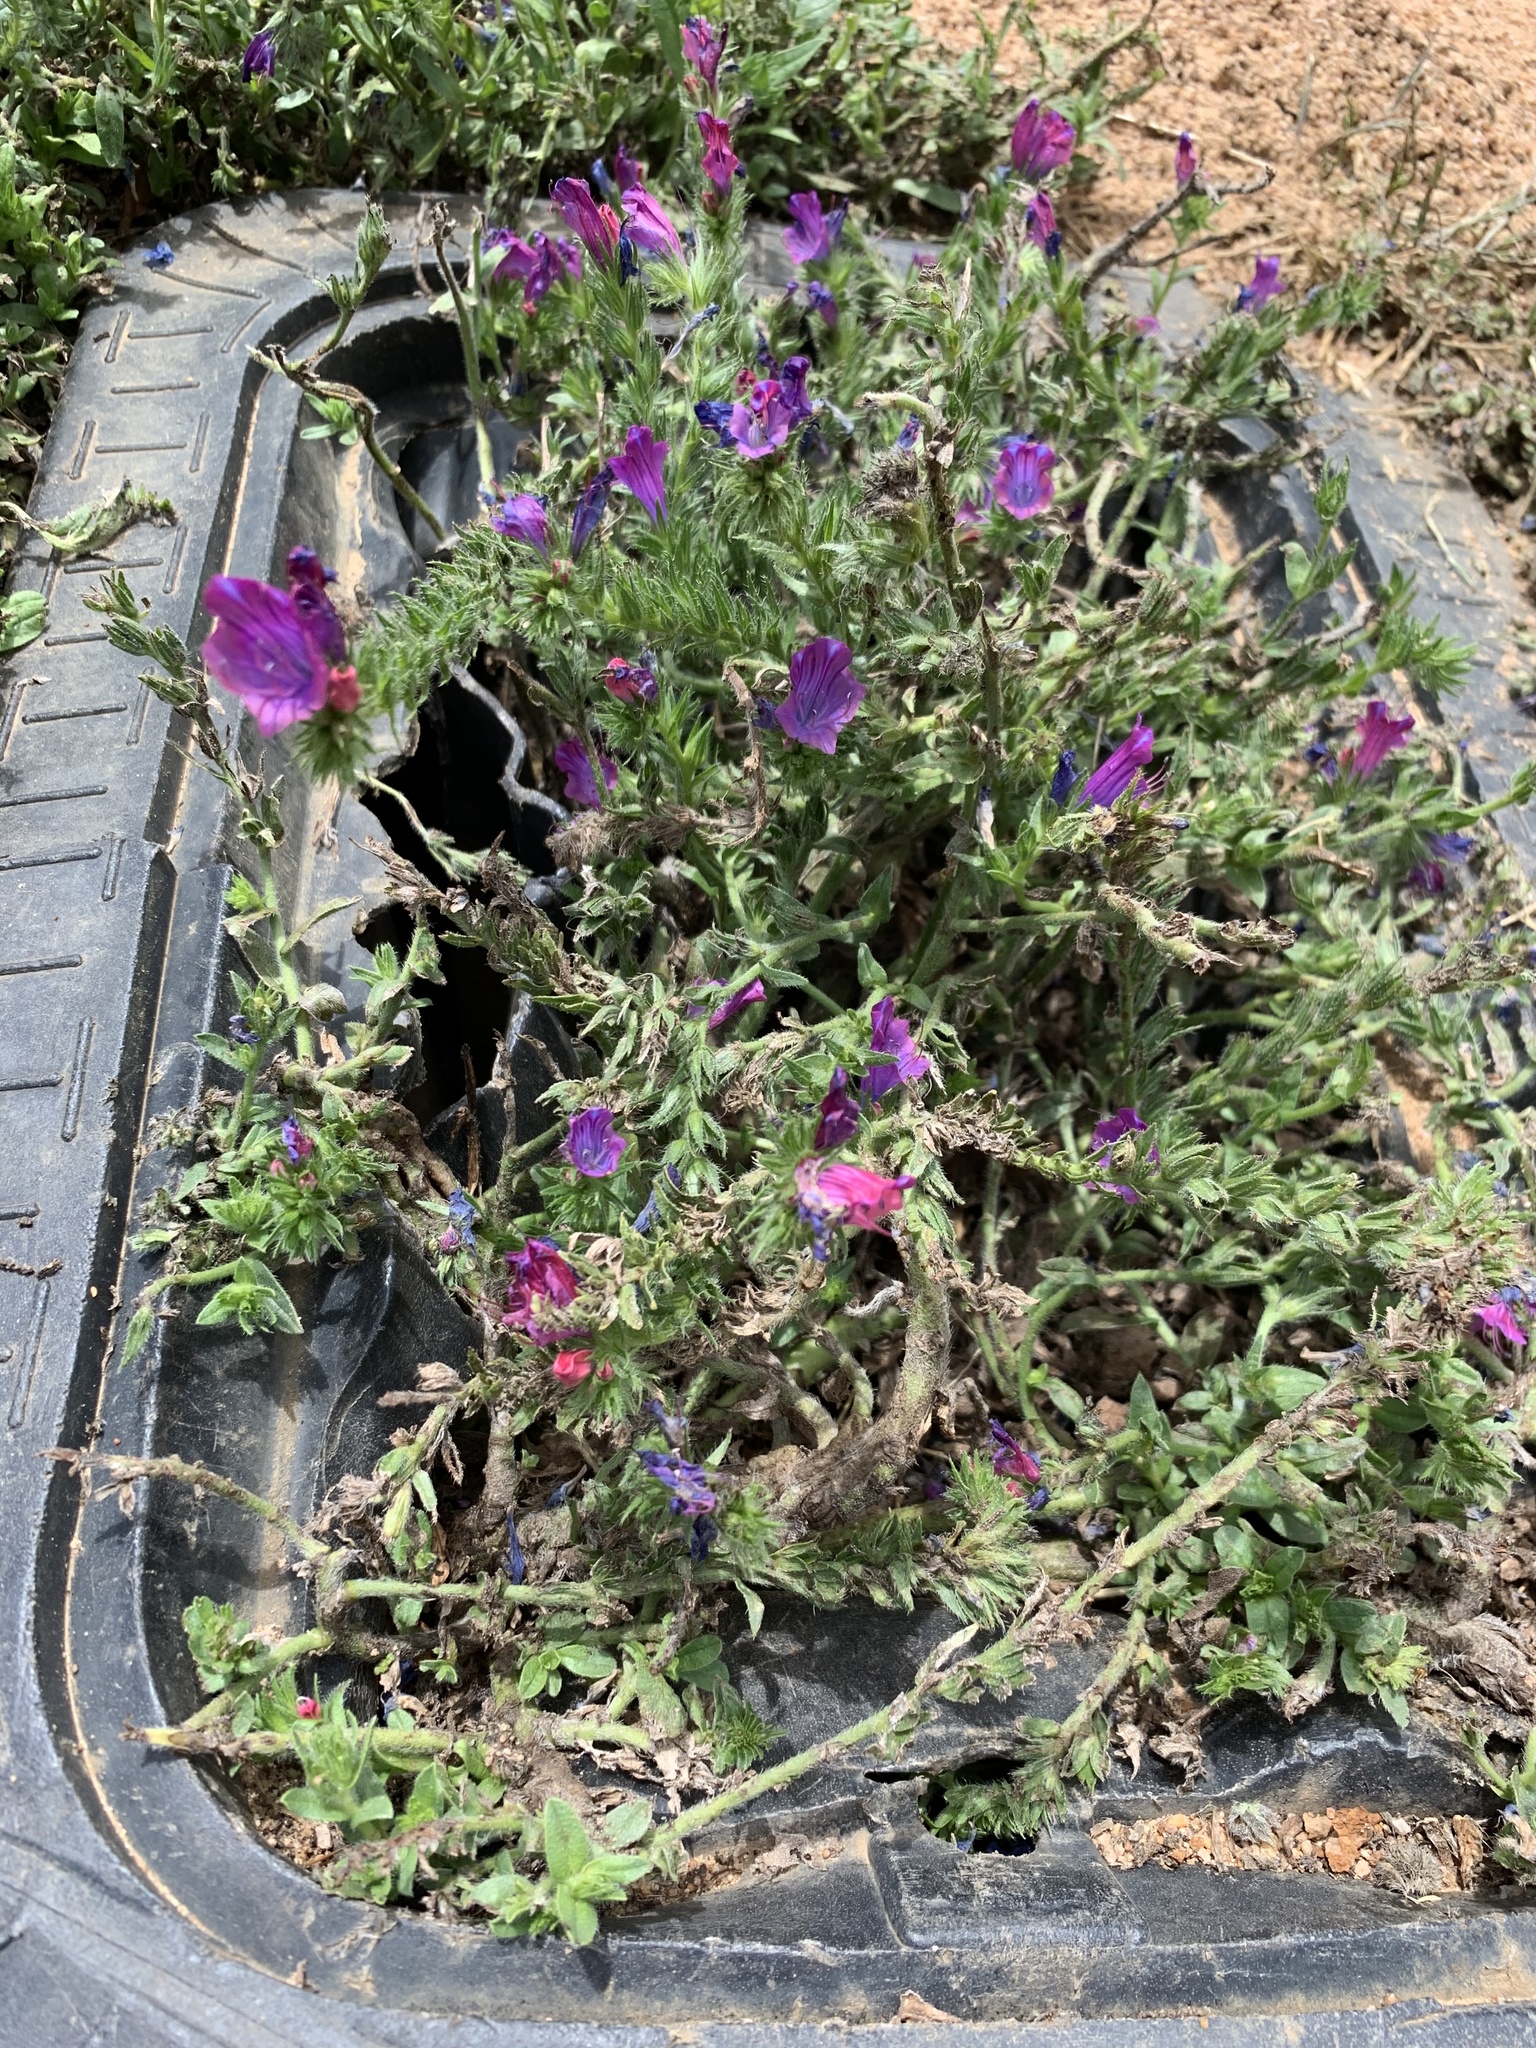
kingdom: Plantae
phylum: Tracheophyta
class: Magnoliopsida
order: Boraginales
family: Boraginaceae
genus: Echium
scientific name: Echium plantagineum
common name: Purple viper's-bugloss
